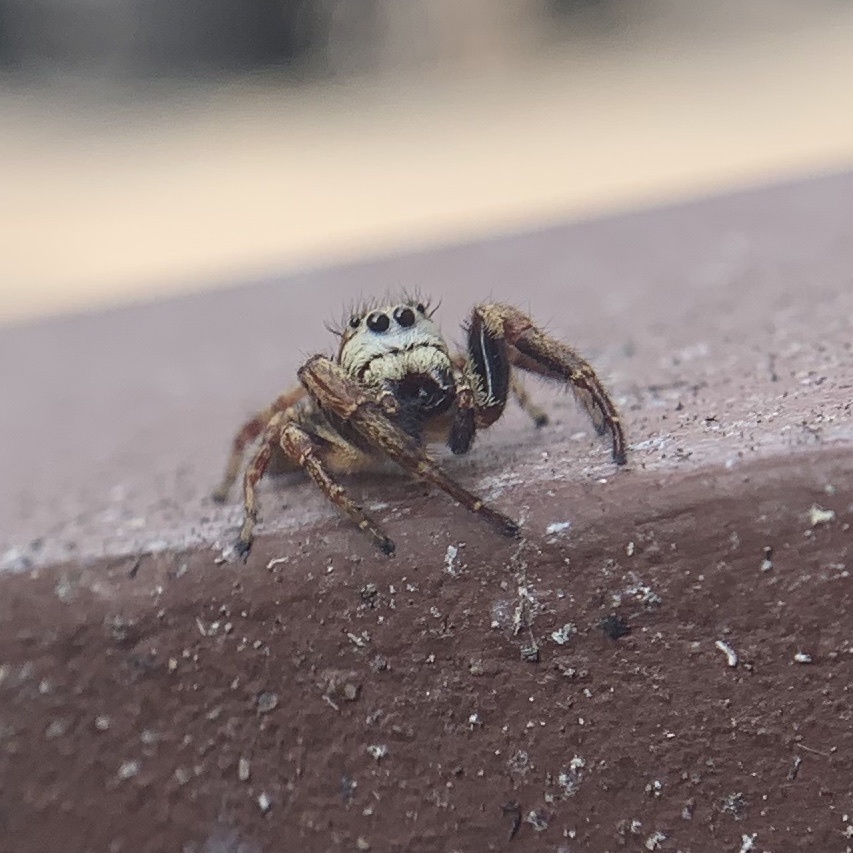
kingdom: Animalia
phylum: Arthropoda
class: Arachnida
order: Araneae
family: Salticidae
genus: Phanias
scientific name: Phanias albeolus
